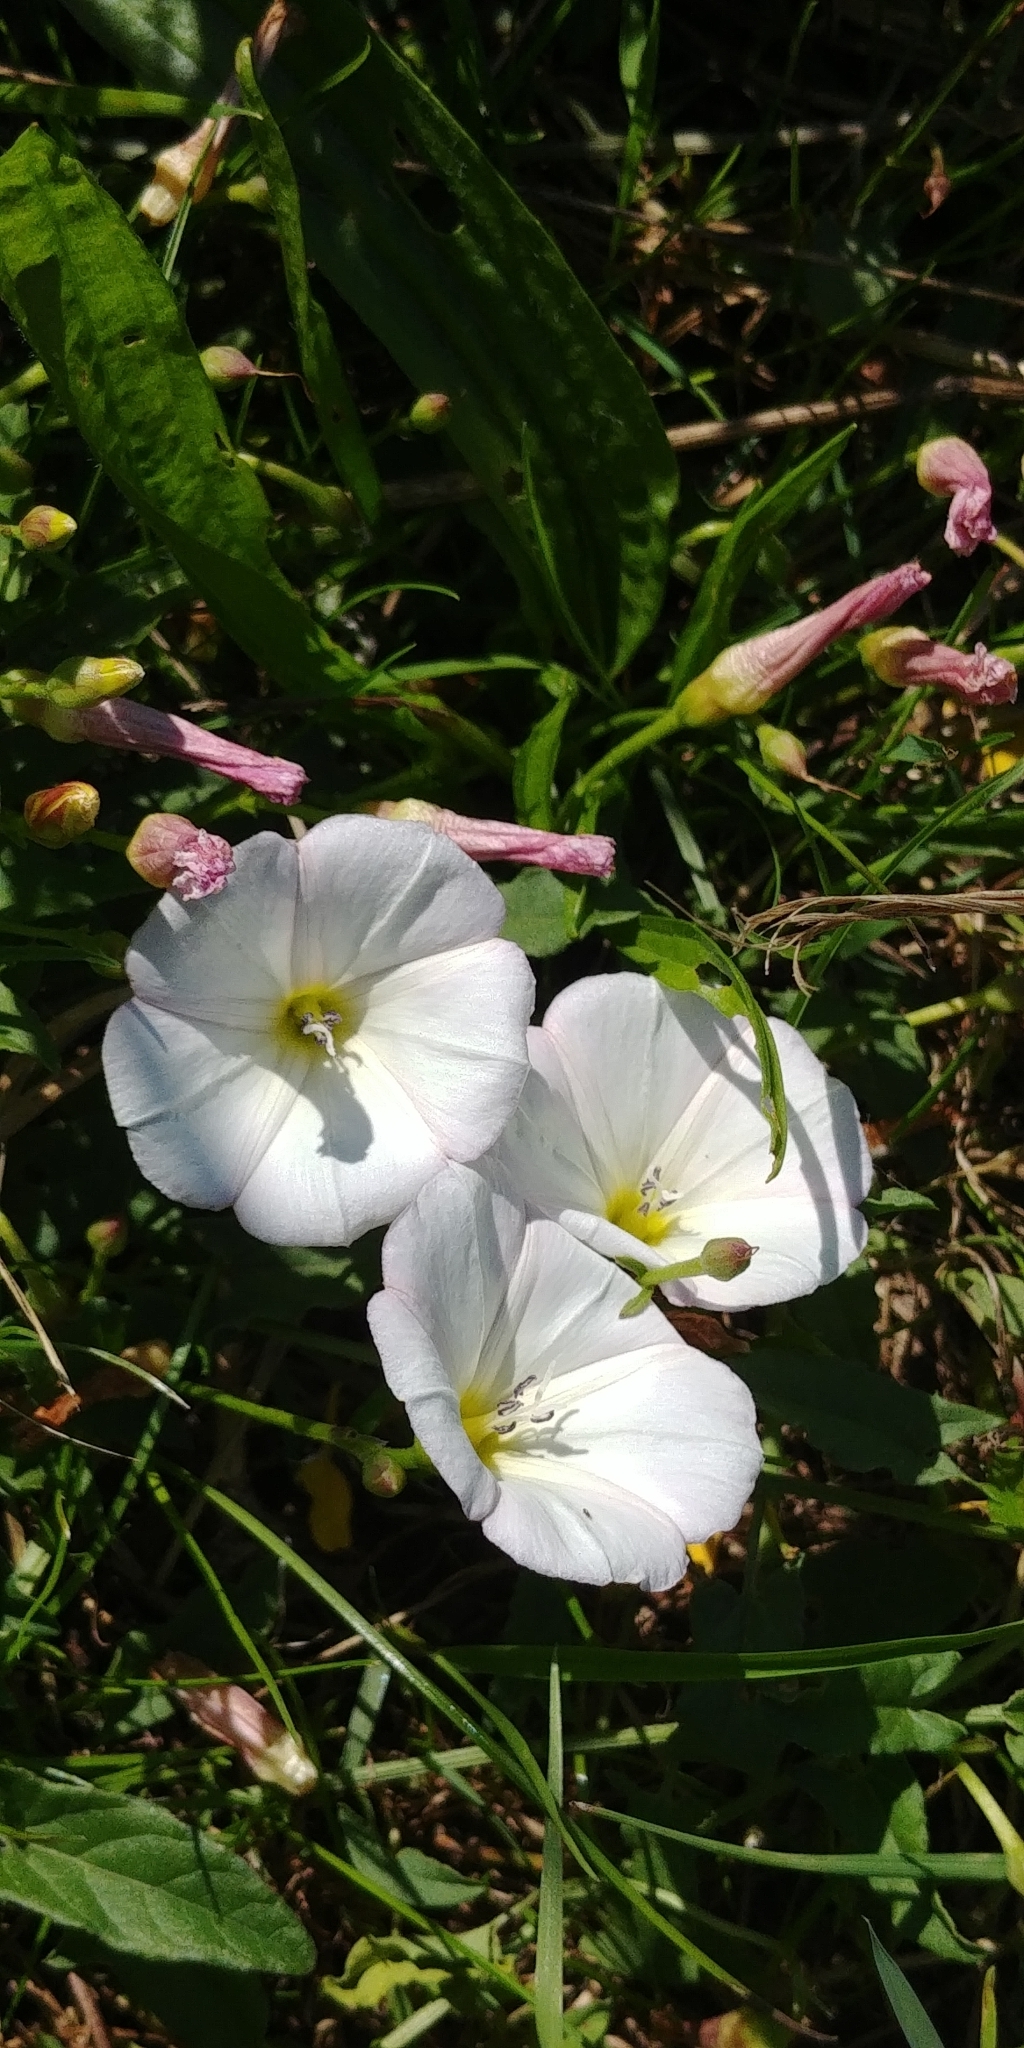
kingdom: Plantae
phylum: Tracheophyta
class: Magnoliopsida
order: Solanales
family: Convolvulaceae
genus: Convolvulus
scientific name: Convolvulus arvensis
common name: Field bindweed
